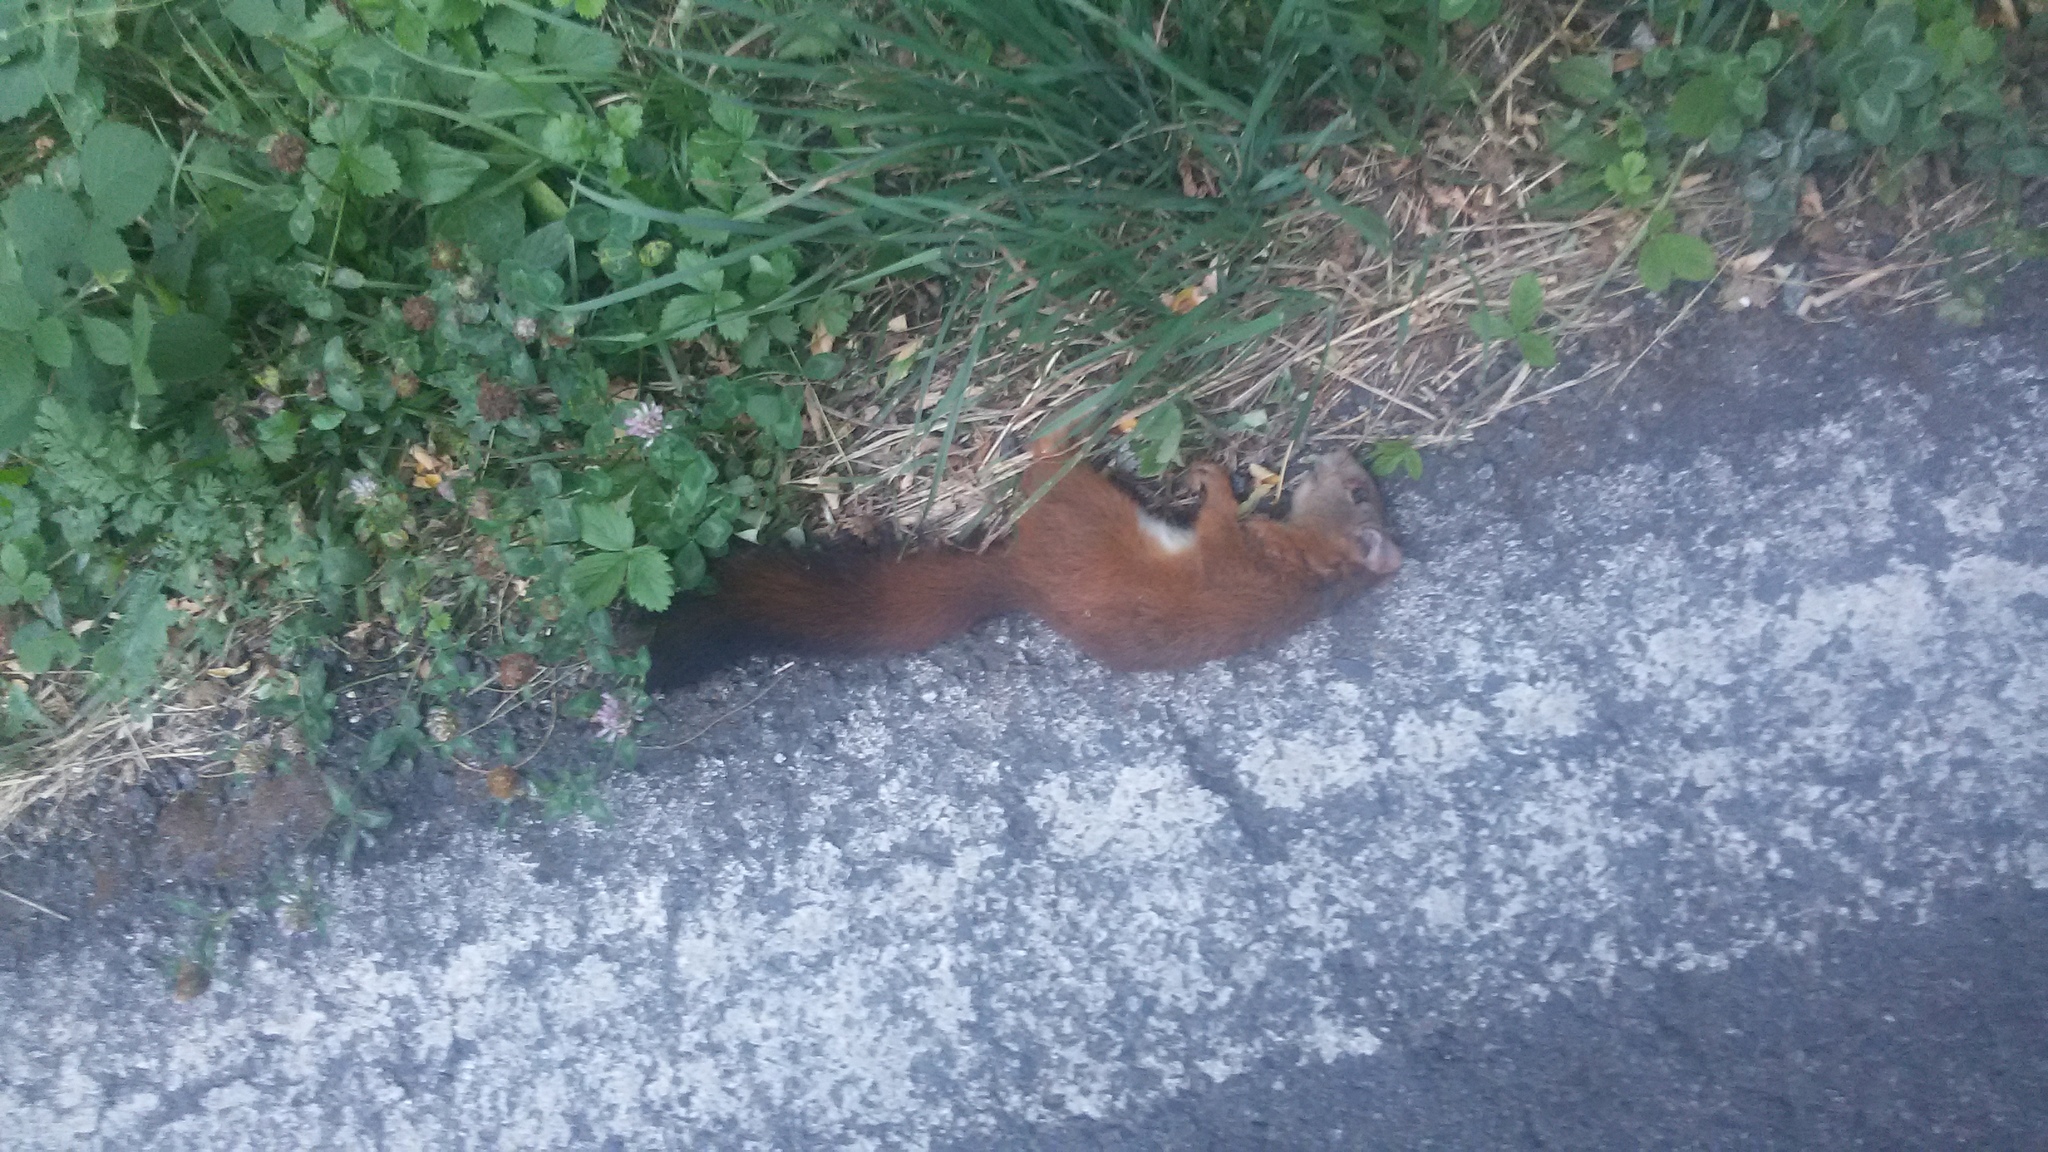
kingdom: Animalia
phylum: Chordata
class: Mammalia
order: Rodentia
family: Sciuridae
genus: Sciurus
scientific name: Sciurus vulgaris
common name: Eurasian red squirrel
